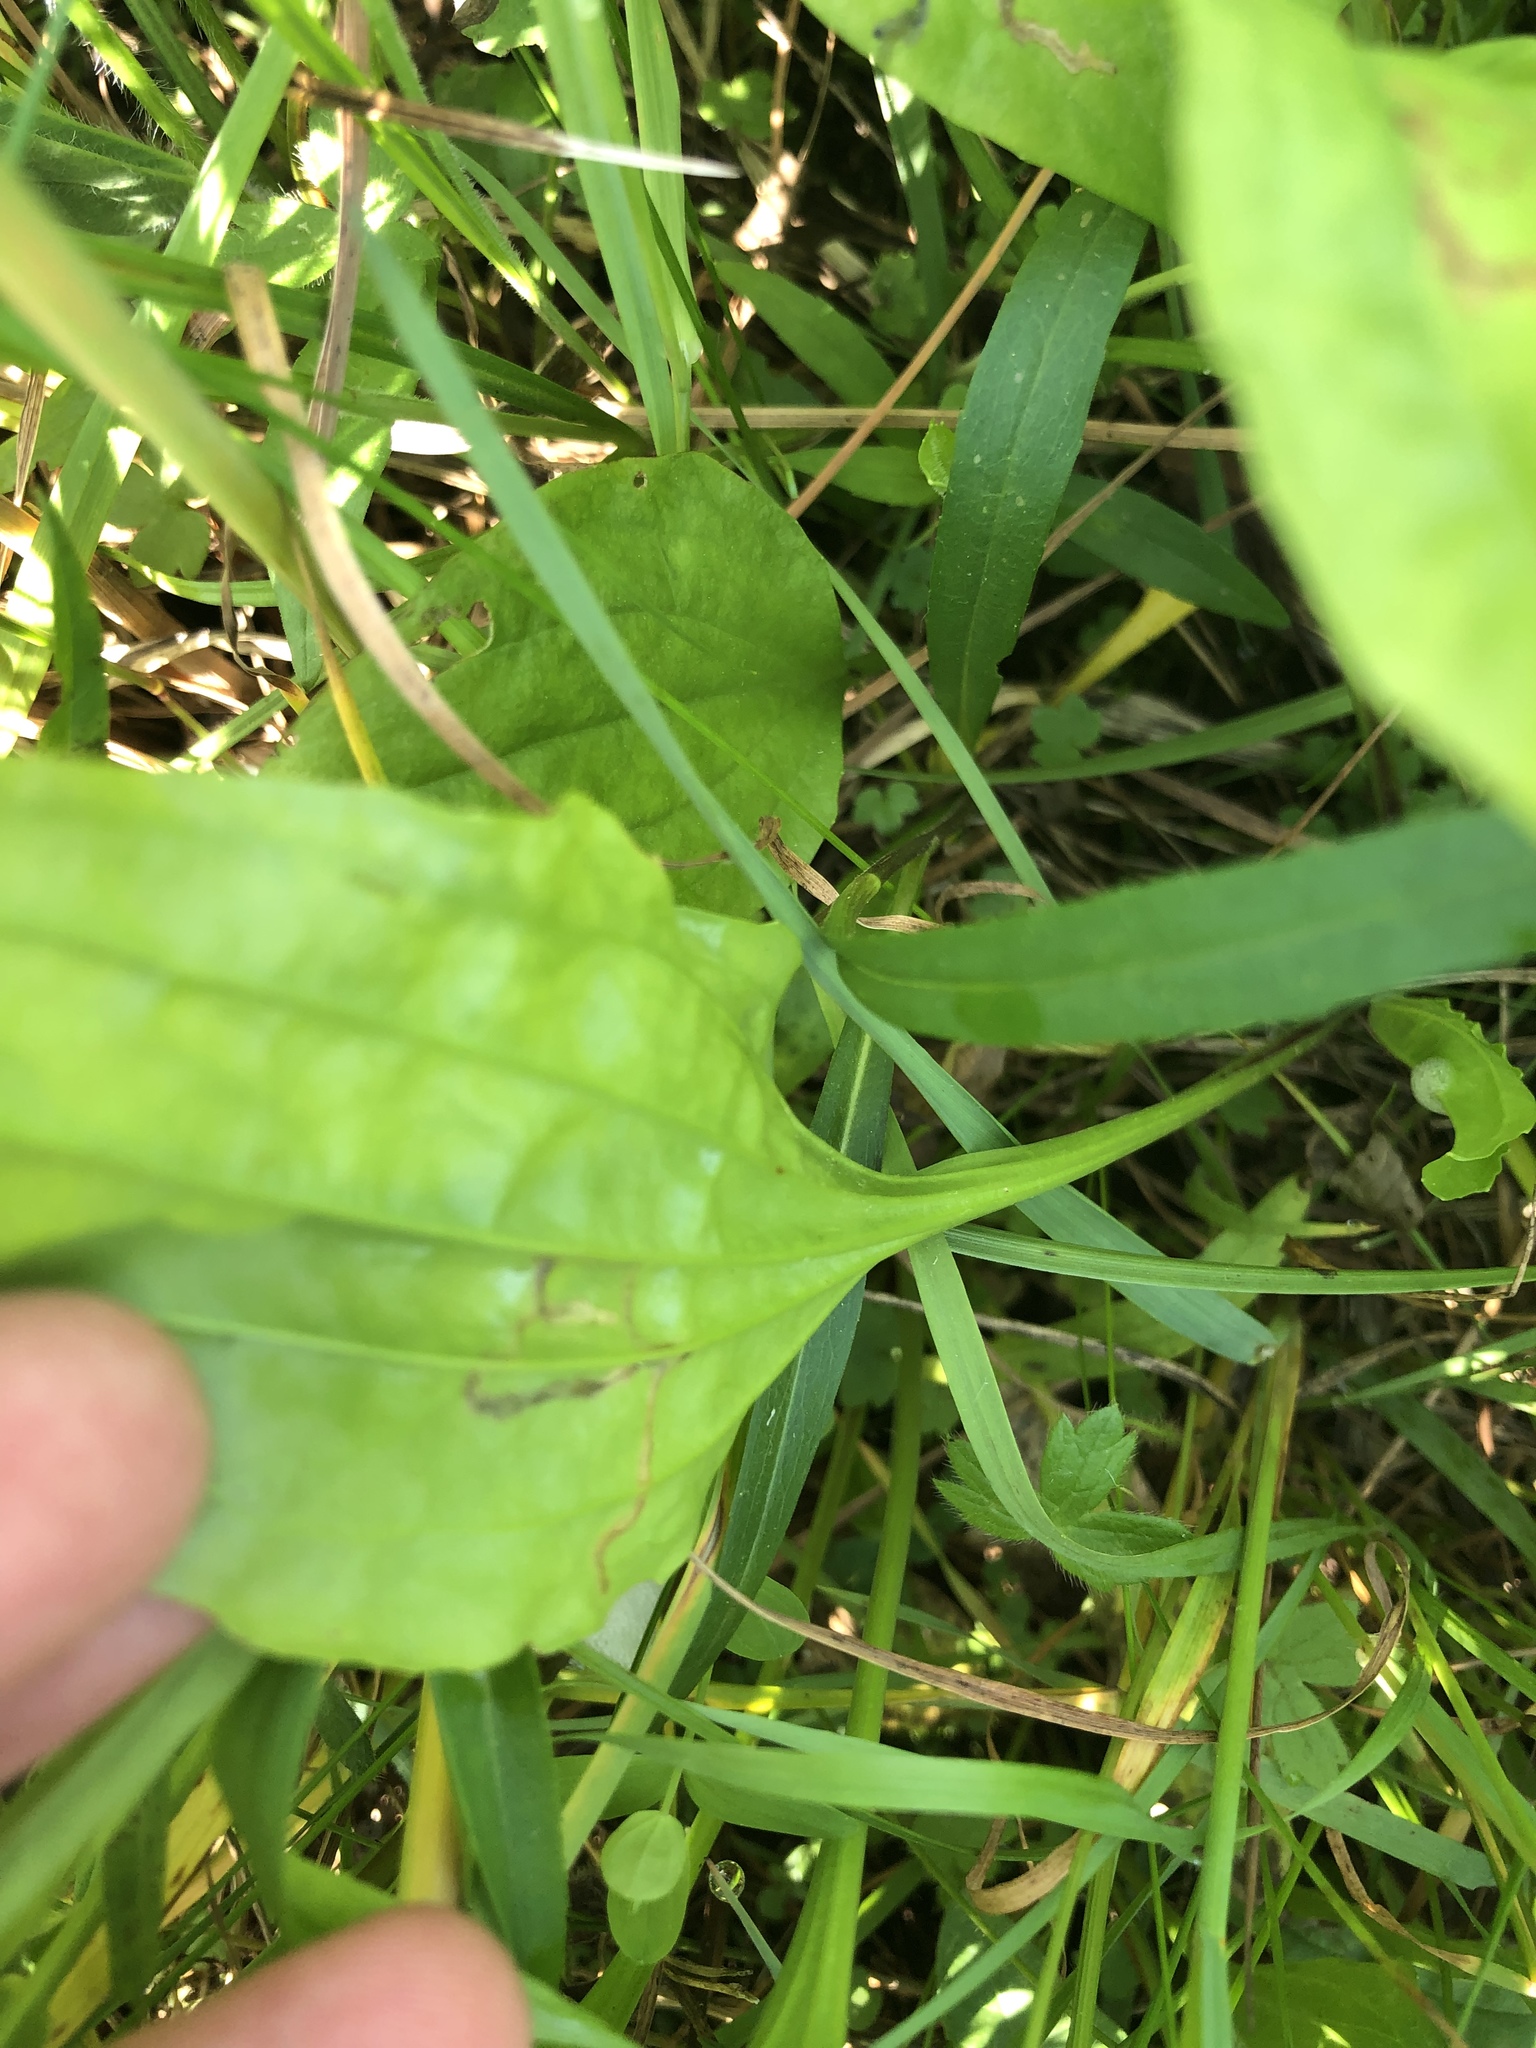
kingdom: Plantae
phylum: Tracheophyta
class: Magnoliopsida
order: Lamiales
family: Plantaginaceae
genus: Plantago
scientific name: Plantago rugelii
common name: American plantain
